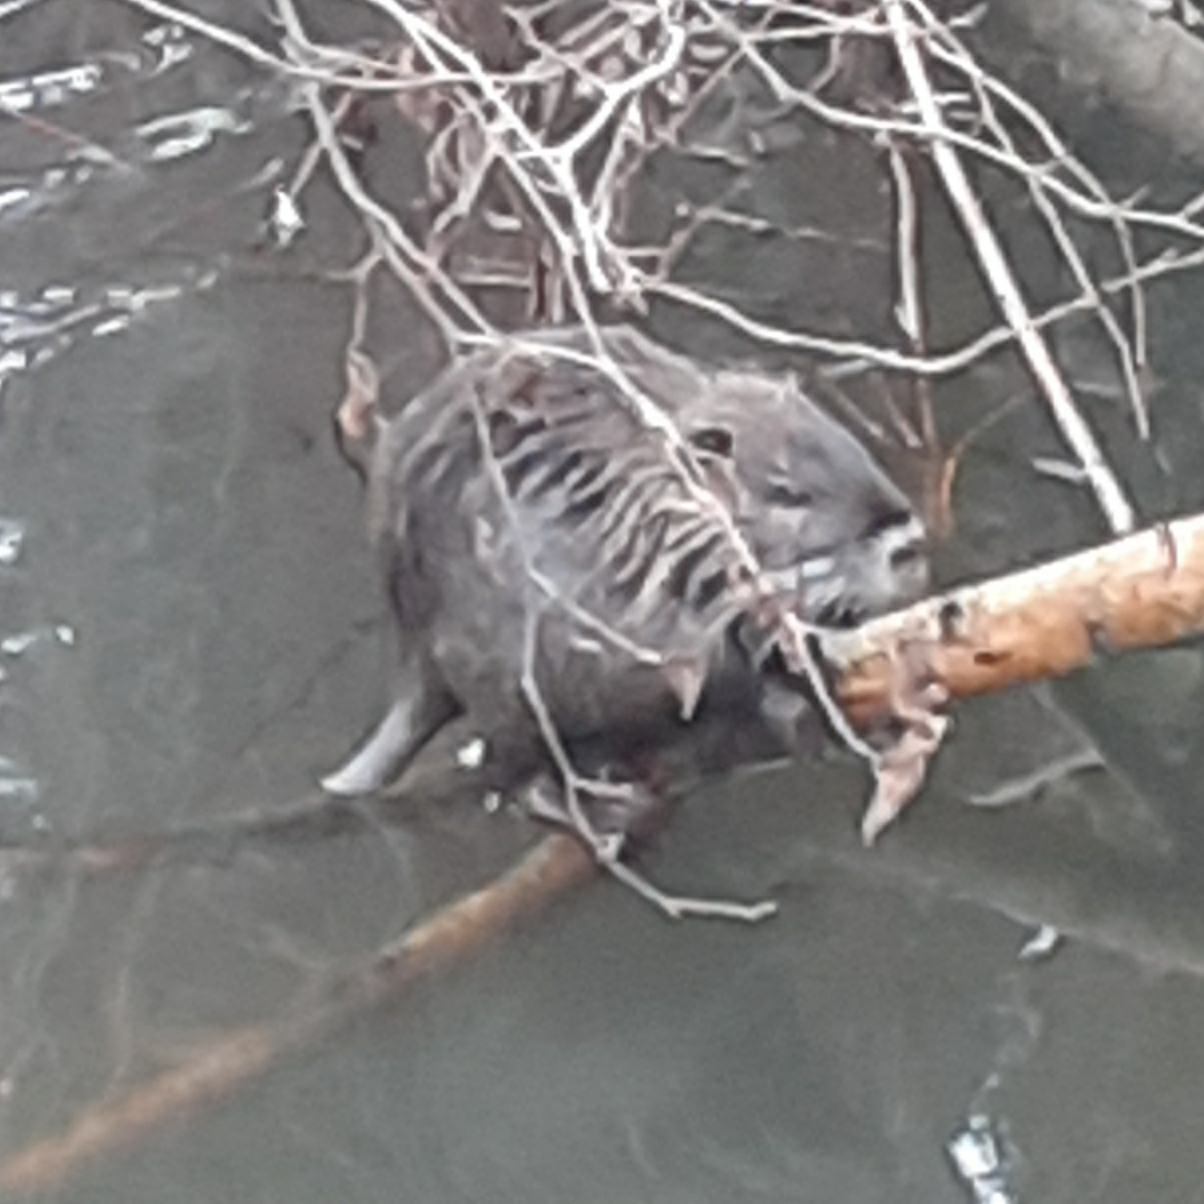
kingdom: Animalia
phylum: Chordata
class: Mammalia
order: Rodentia
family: Myocastoridae
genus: Myocastor
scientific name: Myocastor coypus
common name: Coypu
